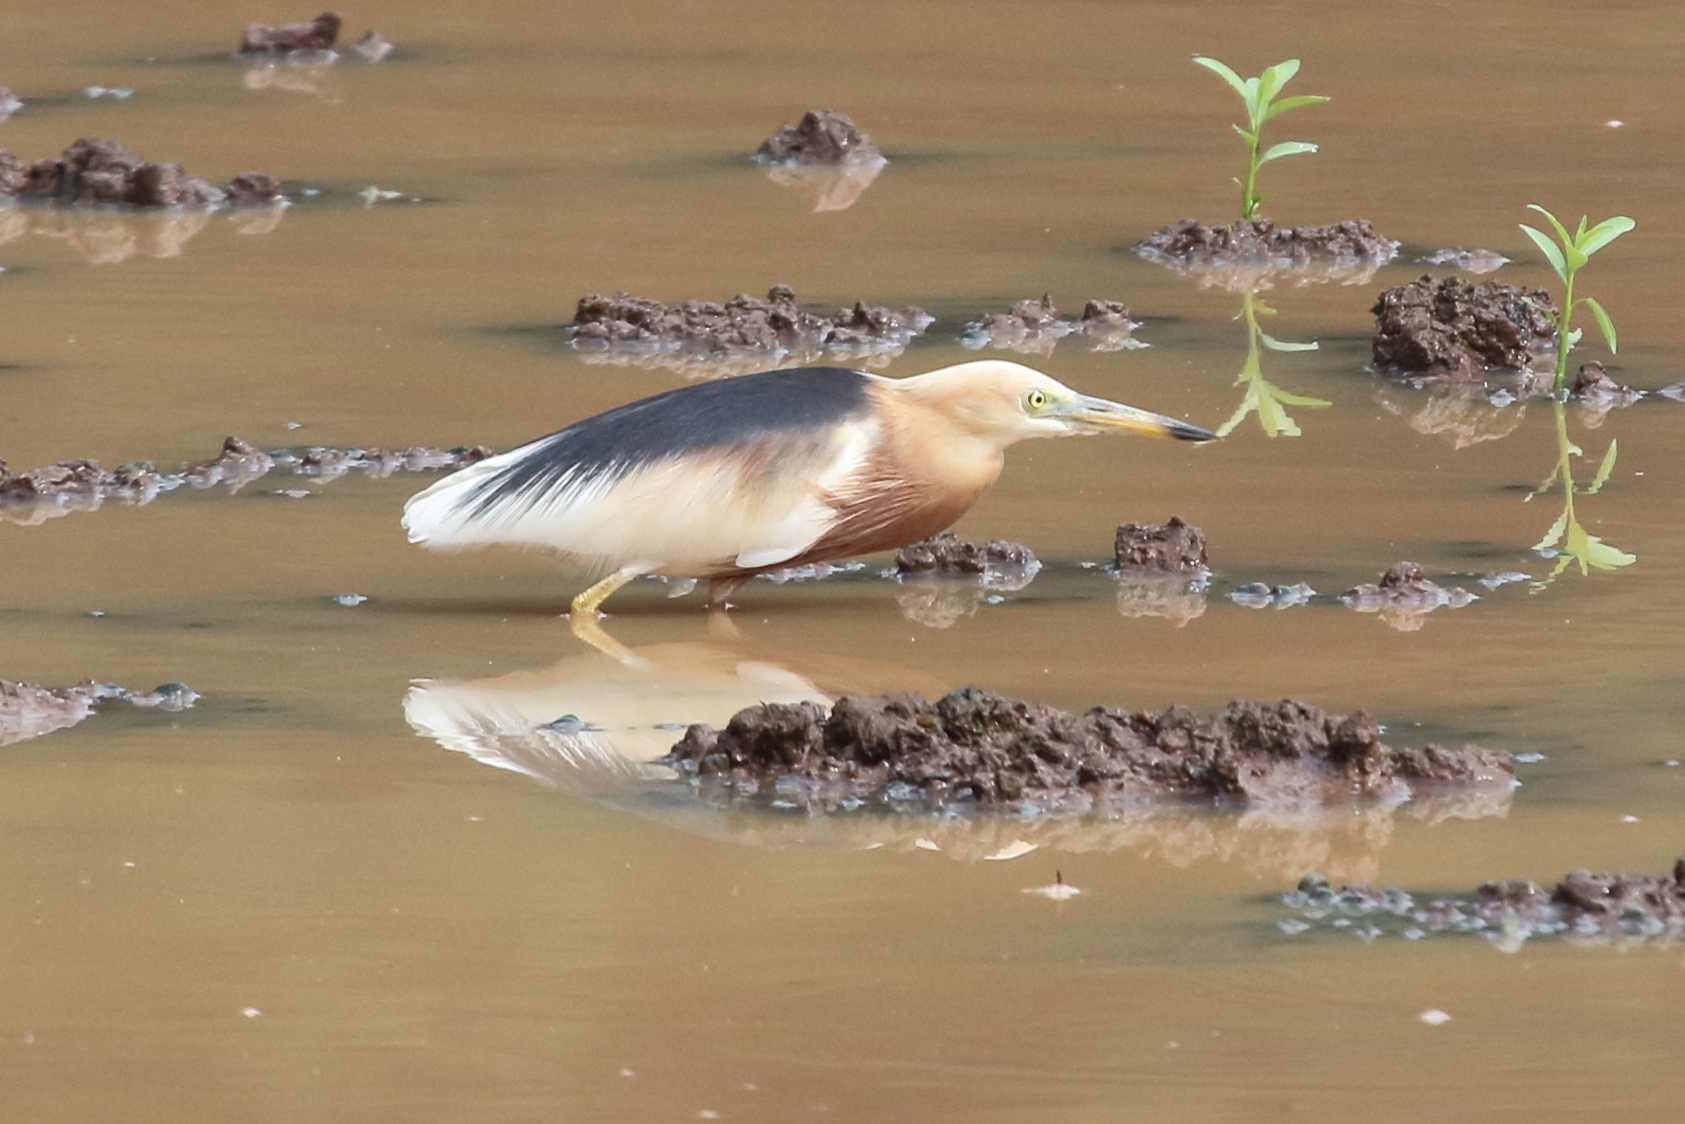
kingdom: Animalia
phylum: Chordata
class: Aves
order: Pelecaniformes
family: Ardeidae
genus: Ardeola
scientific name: Ardeola speciosa
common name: Javan pond heron
